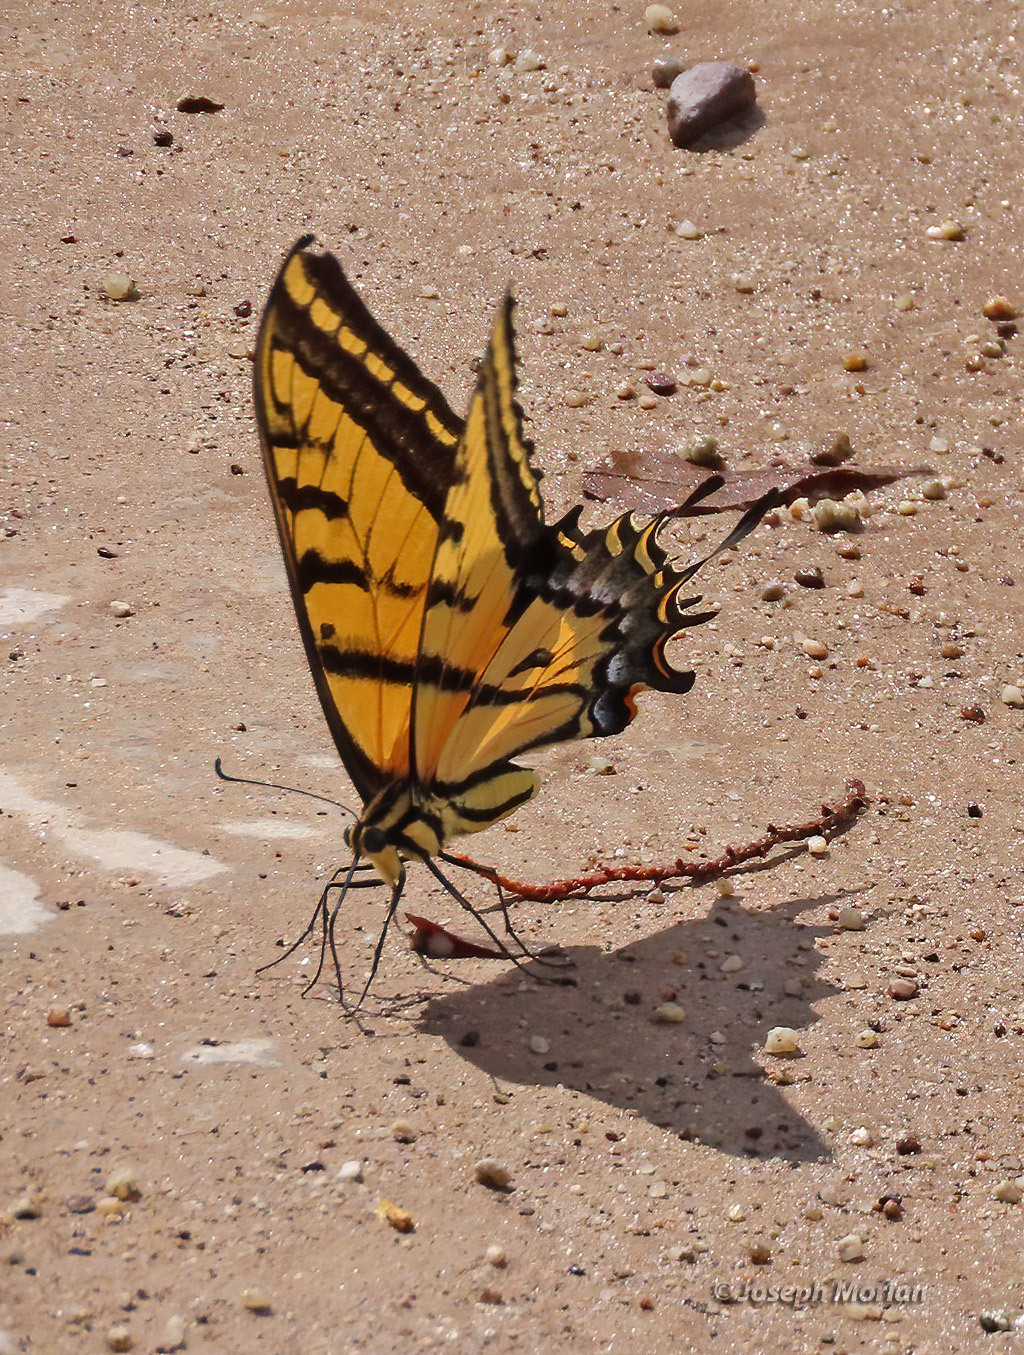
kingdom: Animalia
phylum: Arthropoda
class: Insecta
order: Lepidoptera
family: Papilionidae
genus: Papilio
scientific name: Papilio multicaudata
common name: Two-tailed tiger swallowtail
